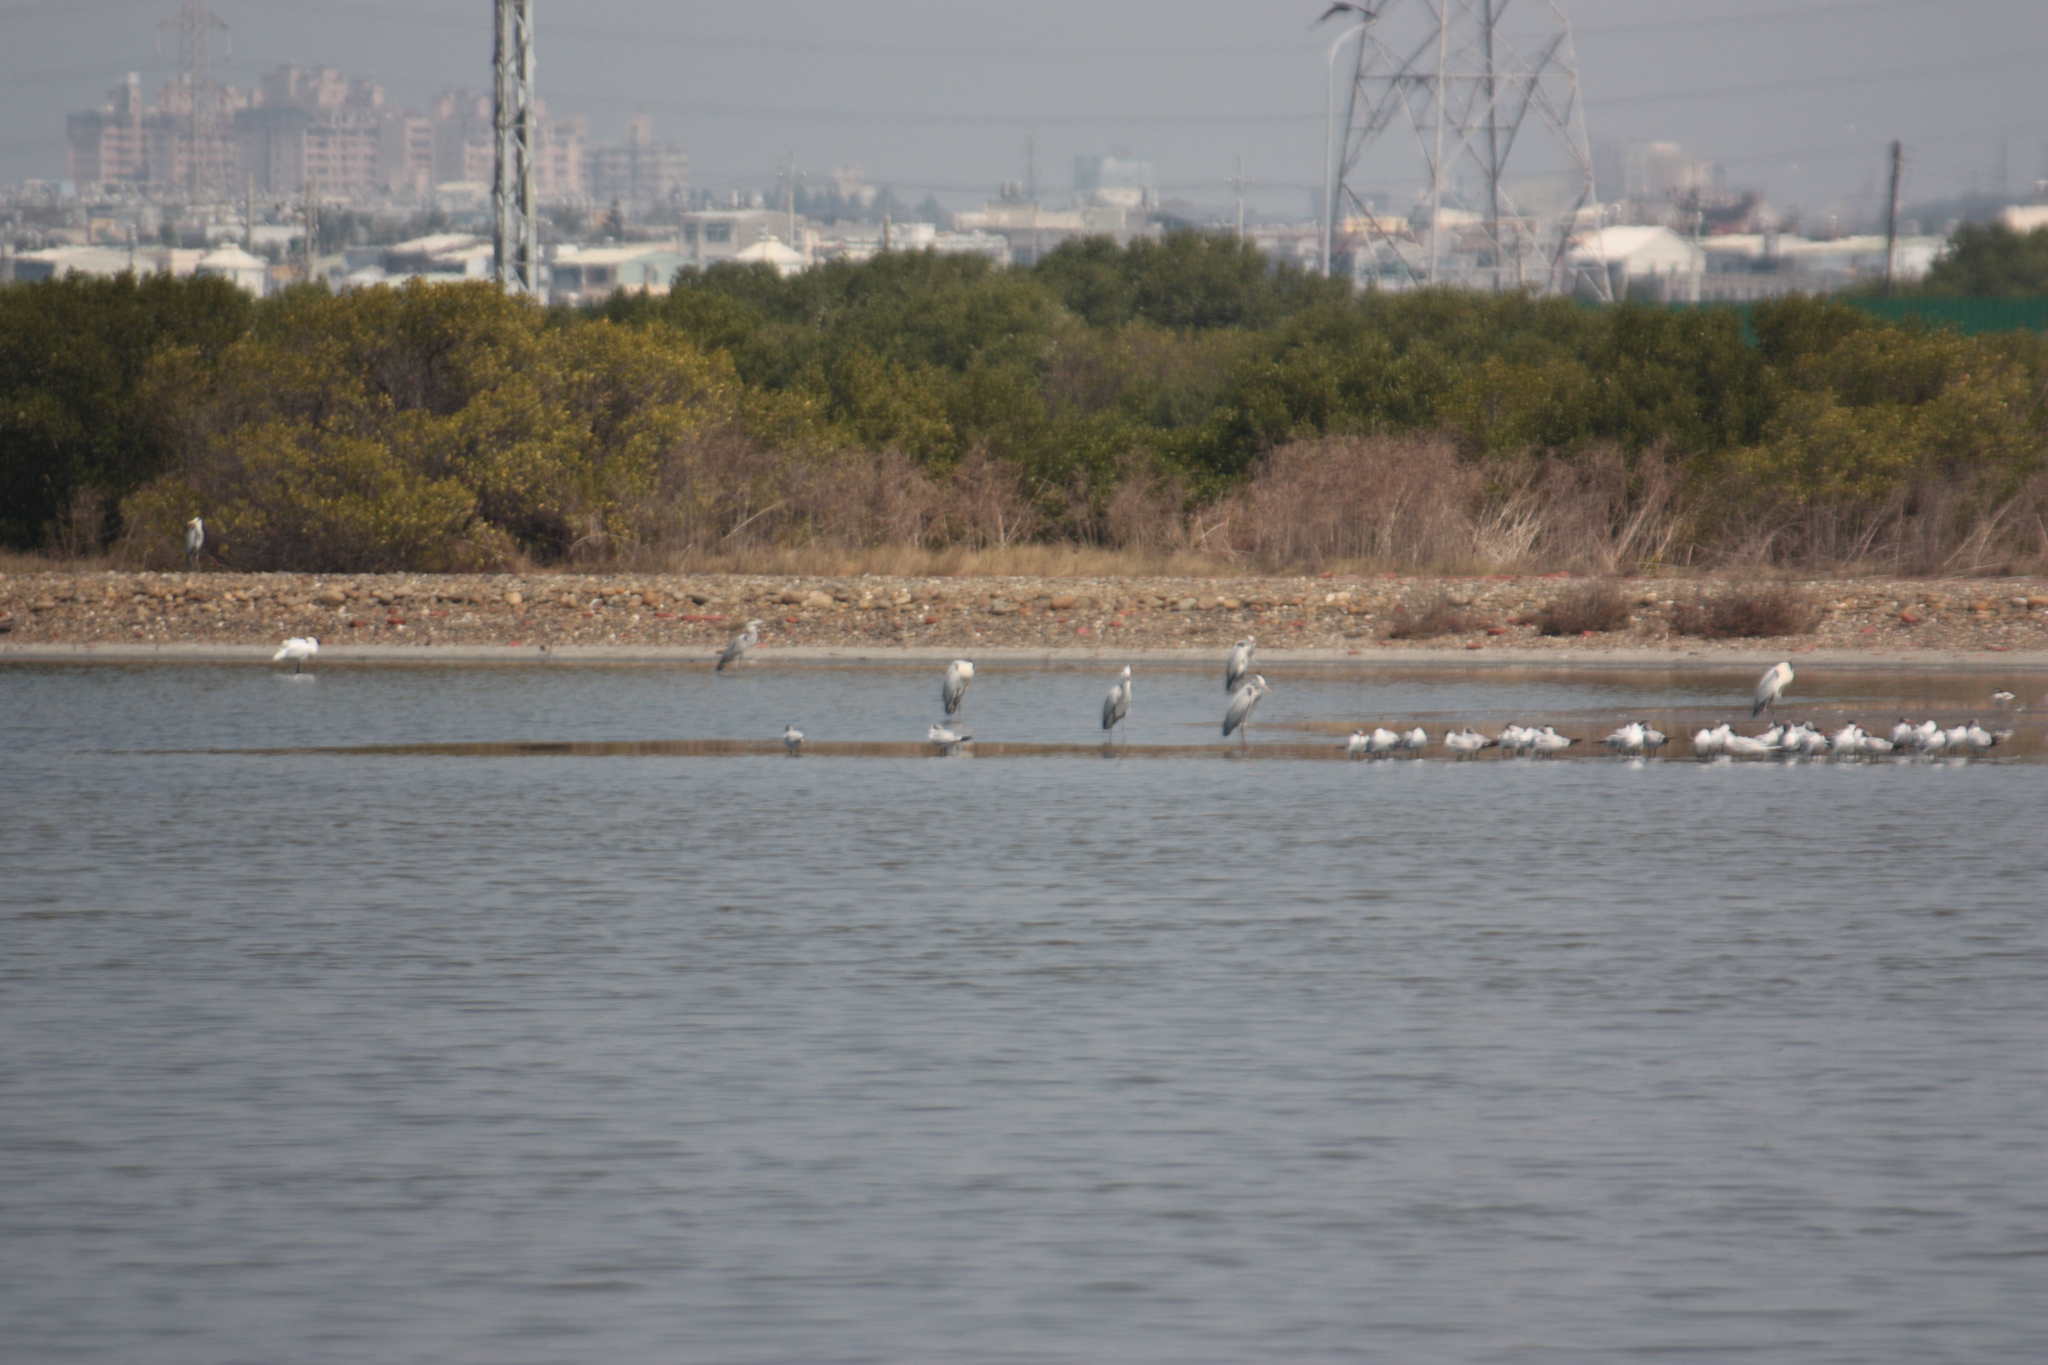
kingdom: Animalia
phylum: Chordata
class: Aves
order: Pelecaniformes
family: Ardeidae
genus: Ardea
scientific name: Ardea cinerea
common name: Grey heron
